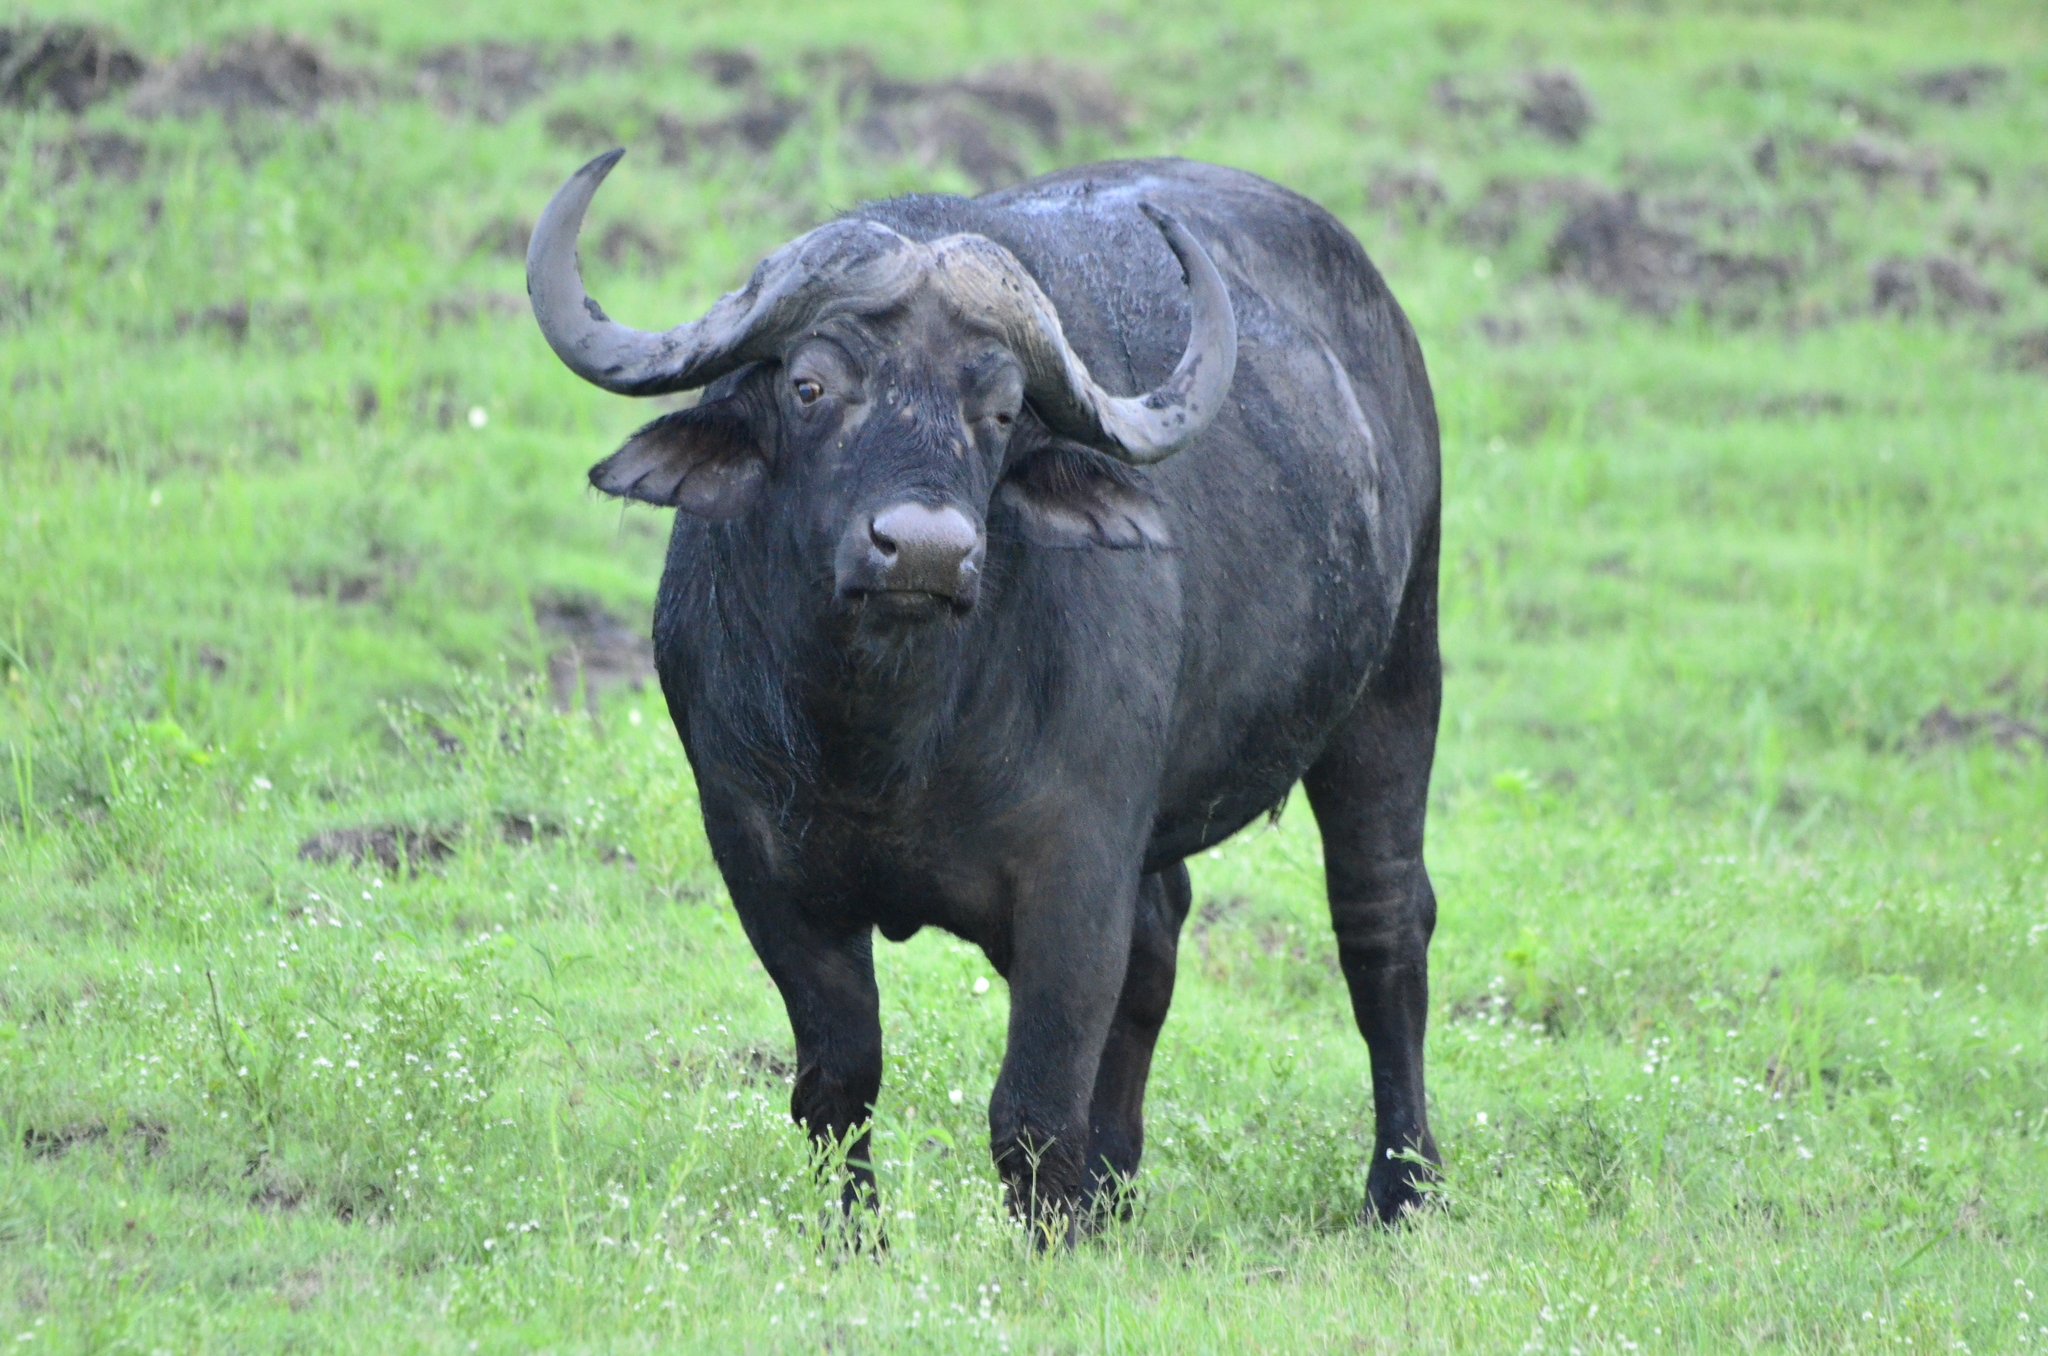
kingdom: Animalia
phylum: Chordata
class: Mammalia
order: Artiodactyla
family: Bovidae
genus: Syncerus
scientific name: Syncerus caffer
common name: African buffalo
